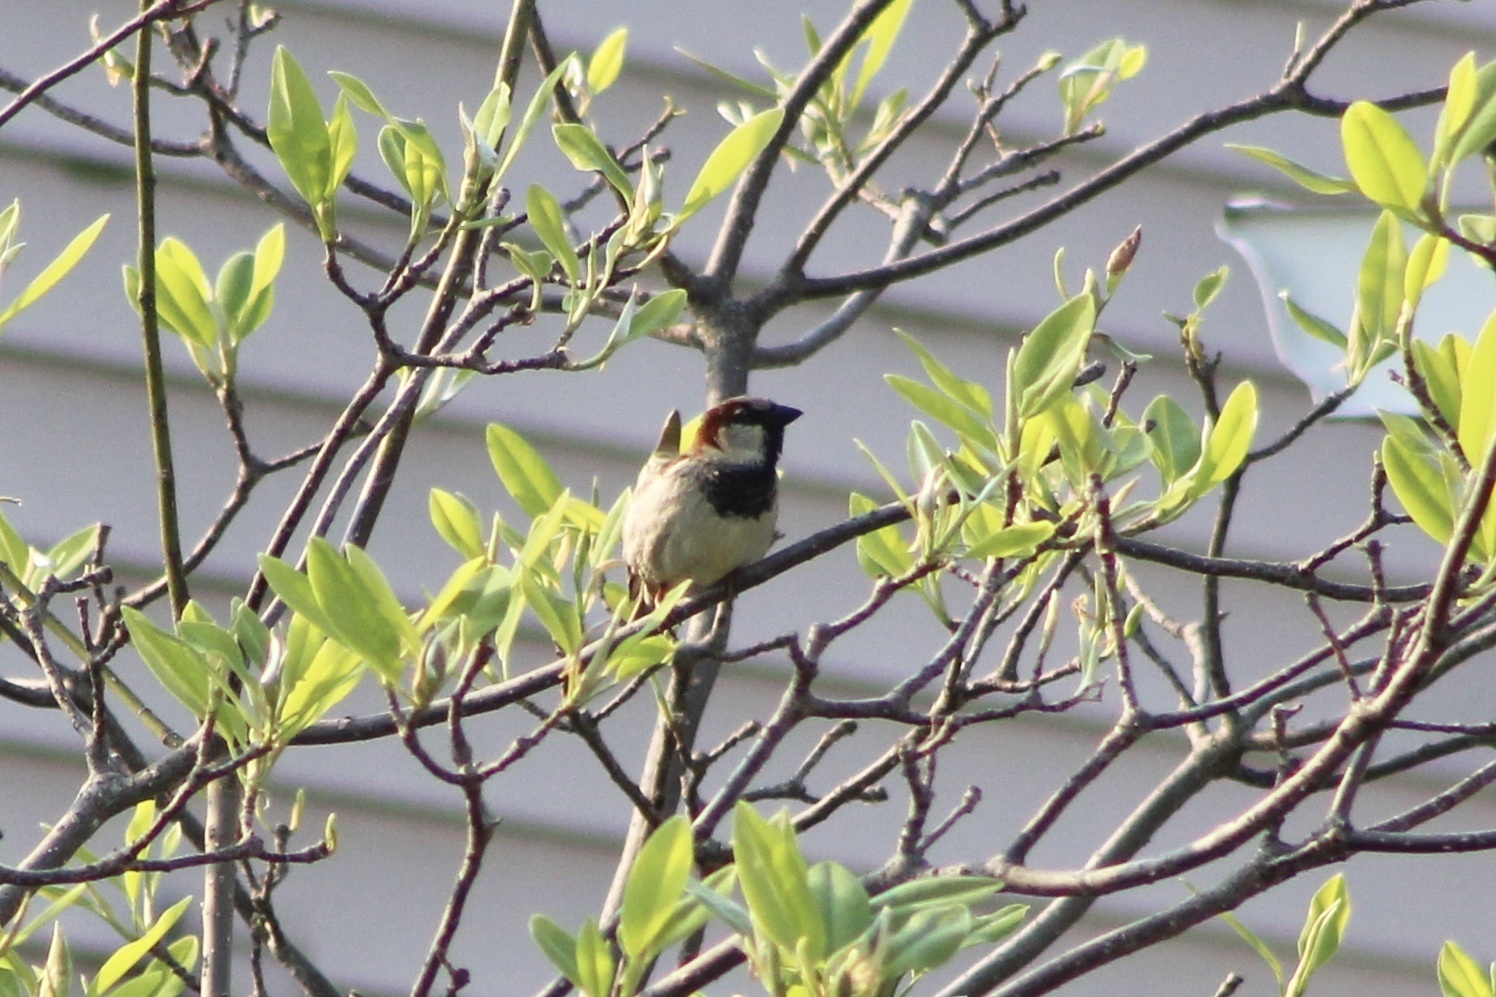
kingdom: Animalia
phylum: Chordata
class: Aves
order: Passeriformes
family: Passeridae
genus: Passer
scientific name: Passer domesticus
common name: House sparrow
